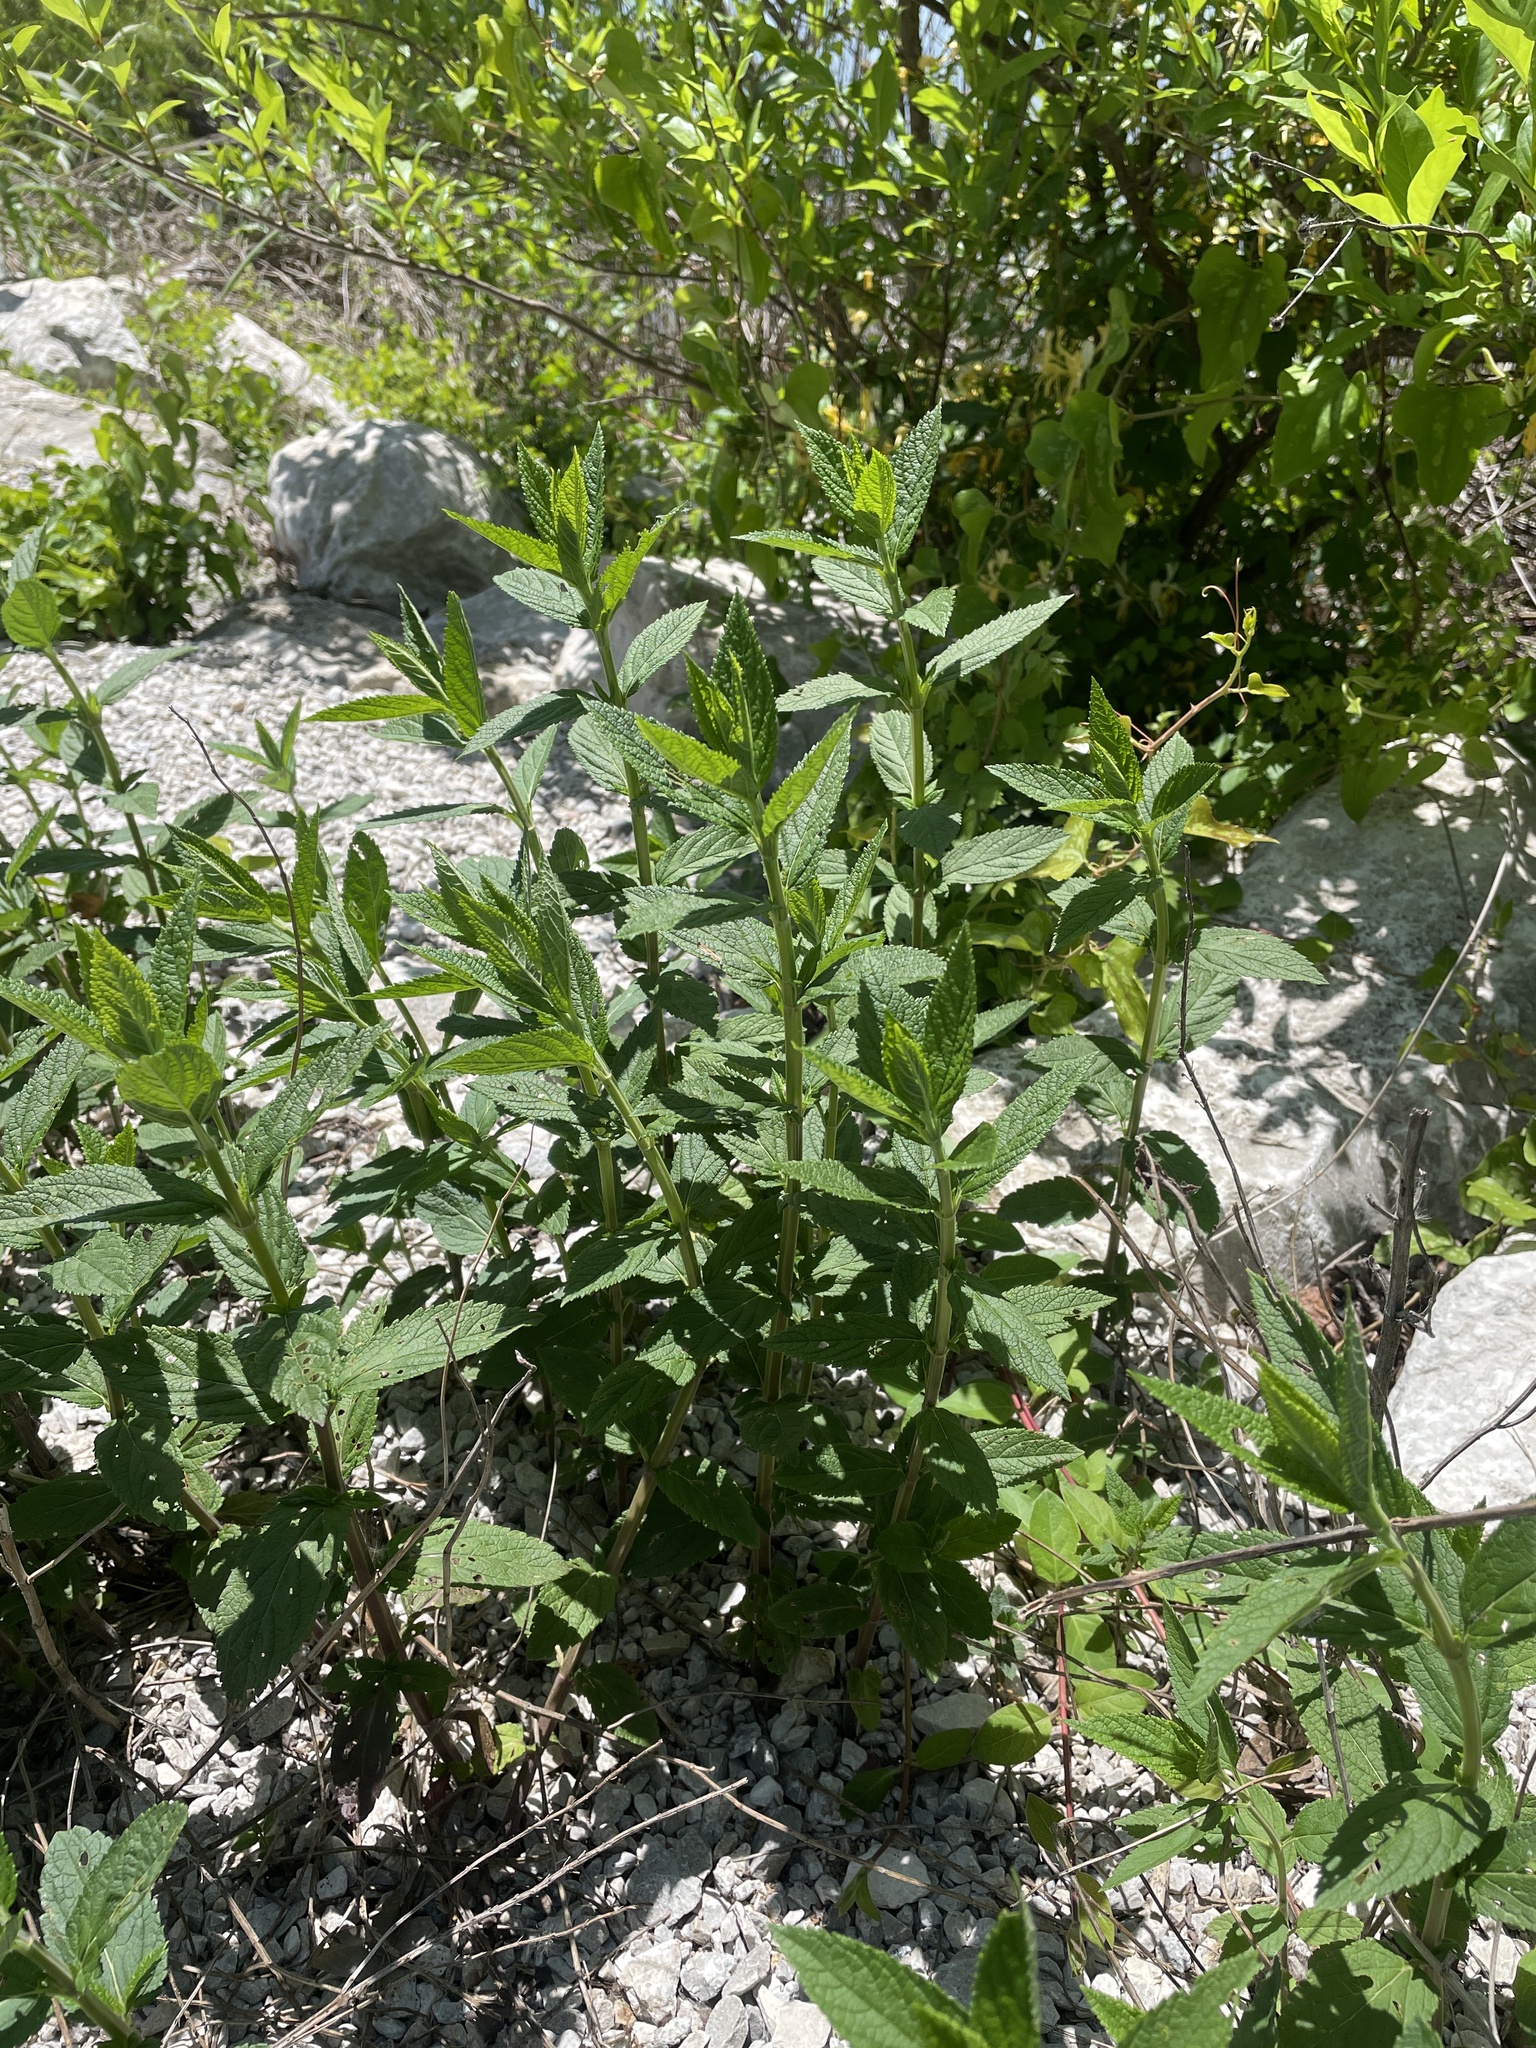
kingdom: Plantae
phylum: Tracheophyta
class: Magnoliopsida
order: Lamiales
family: Lamiaceae
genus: Teucrium
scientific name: Teucrium canadense
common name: American germander
